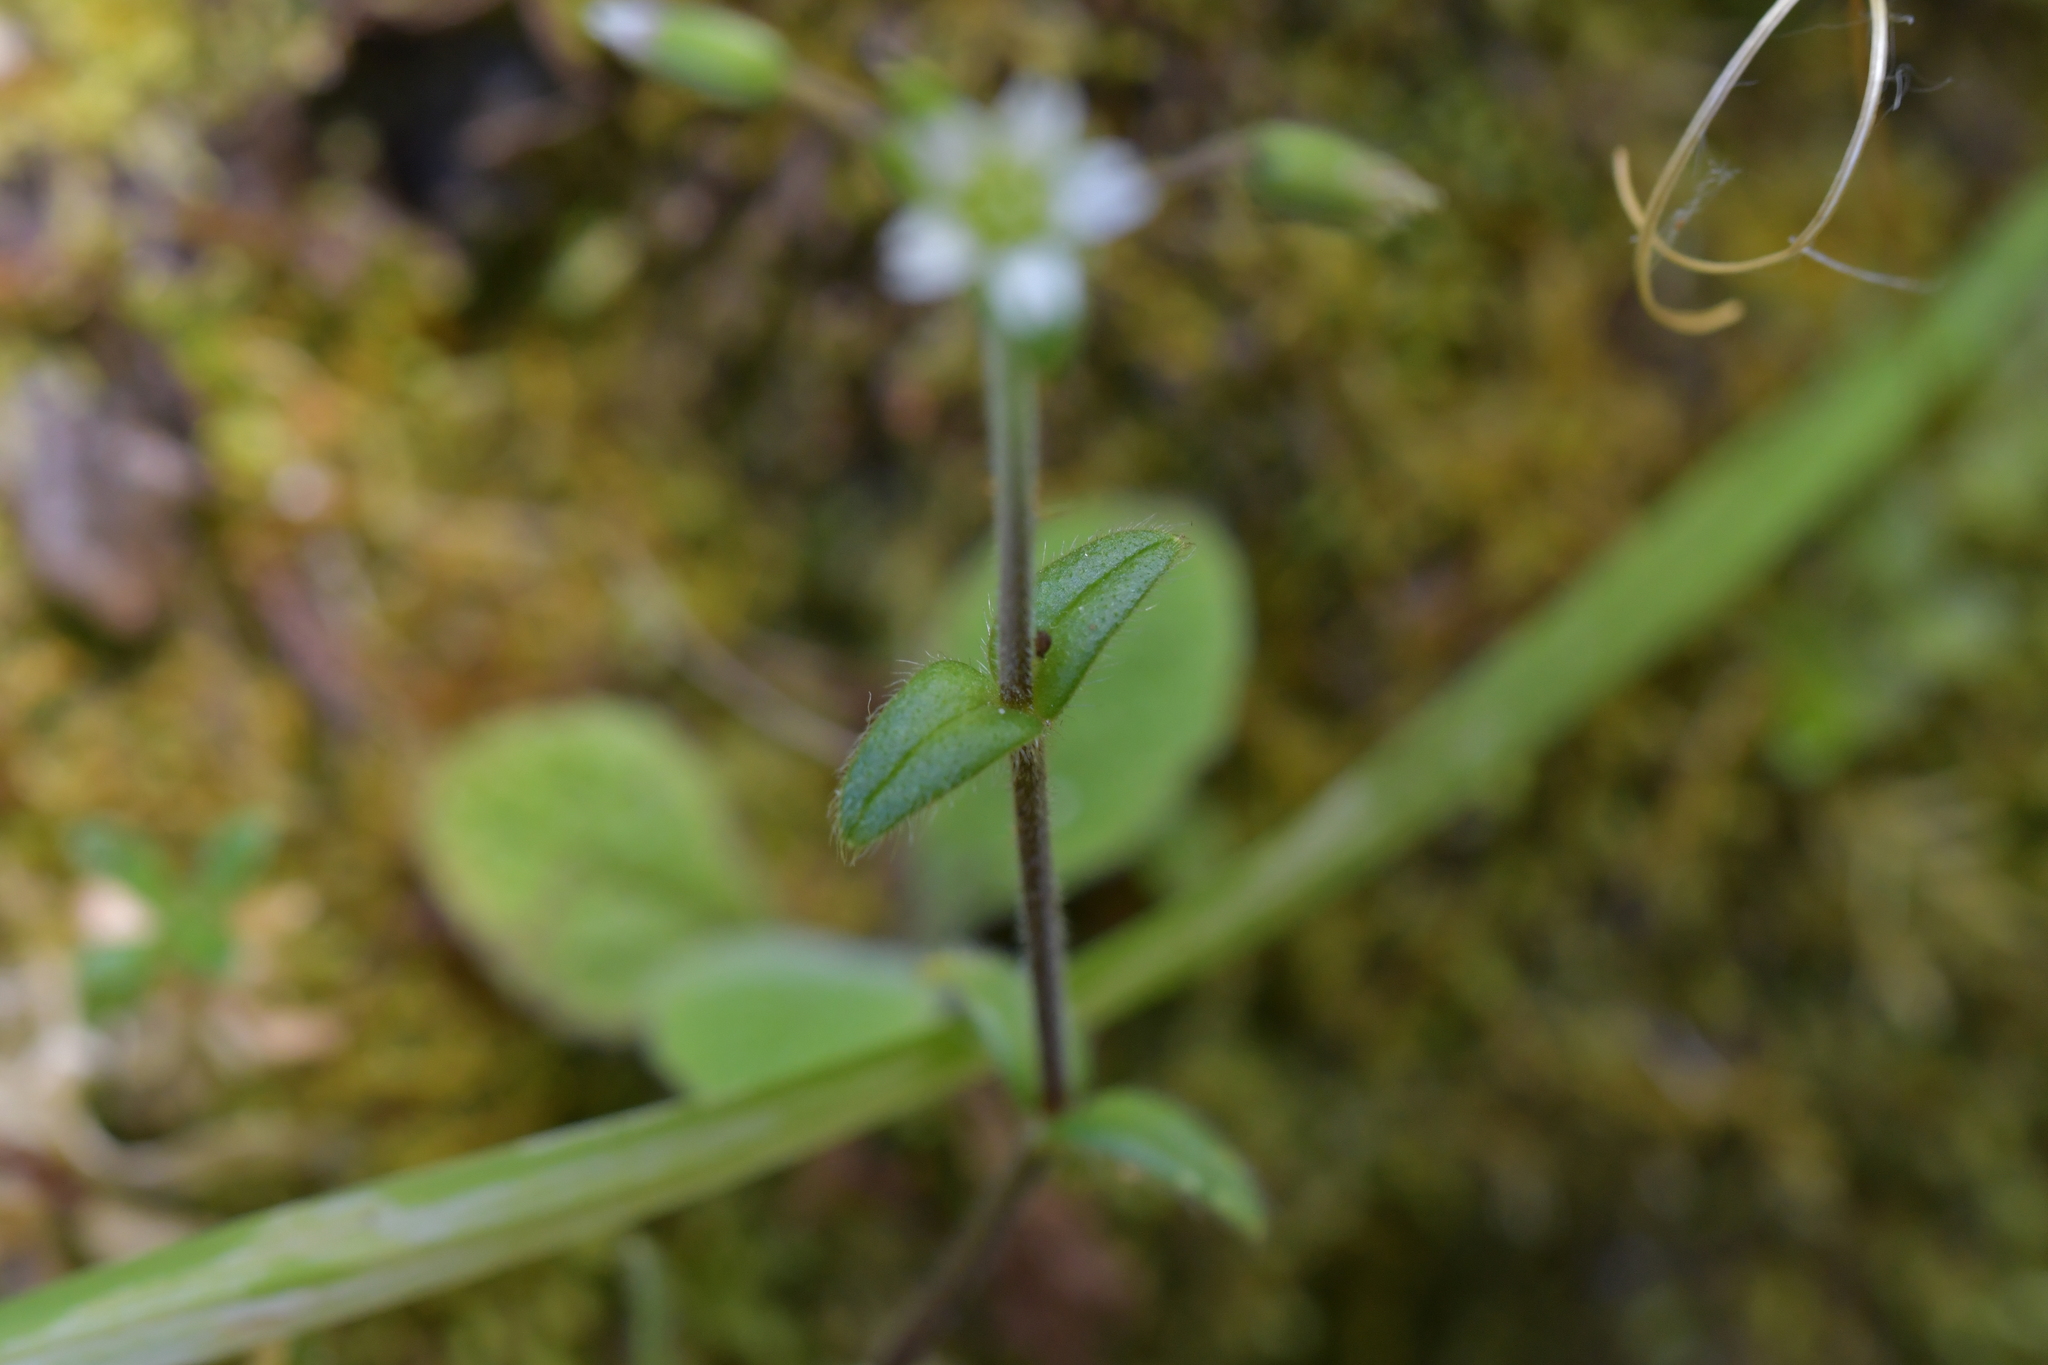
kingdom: Plantae
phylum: Tracheophyta
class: Magnoliopsida
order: Caryophyllales
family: Caryophyllaceae
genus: Cerastium
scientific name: Cerastium fontanum
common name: Common mouse-ear
